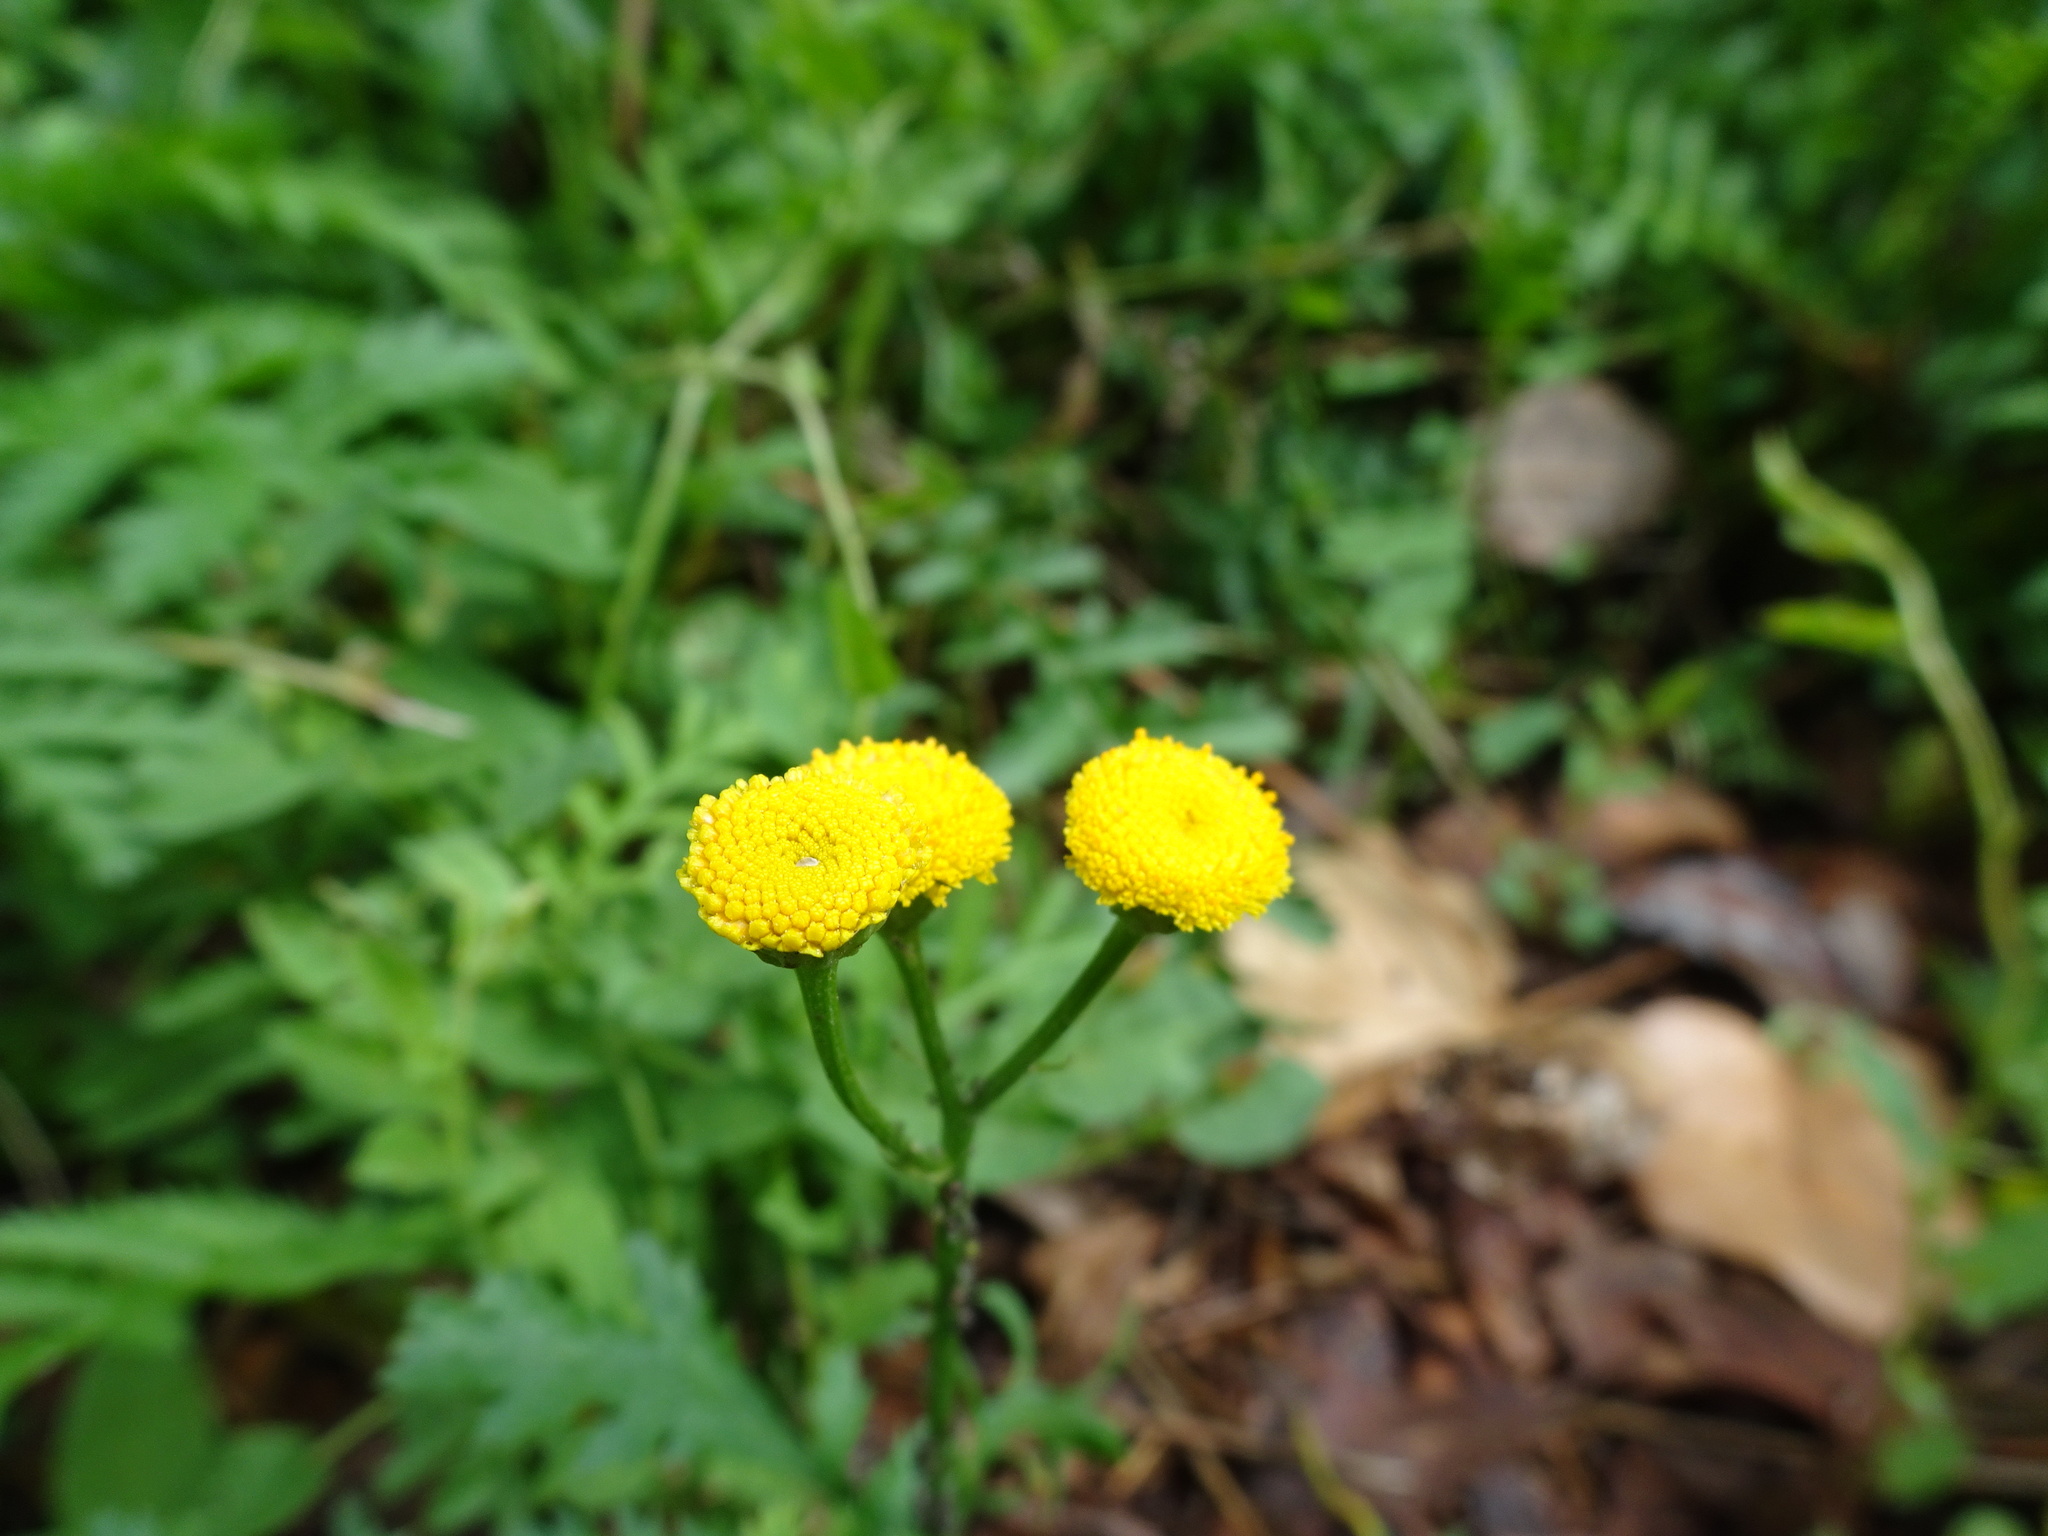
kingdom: Plantae
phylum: Tracheophyta
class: Magnoliopsida
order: Asterales
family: Asteraceae
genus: Tanacetum
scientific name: Tanacetum vulgare
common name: Common tansy
